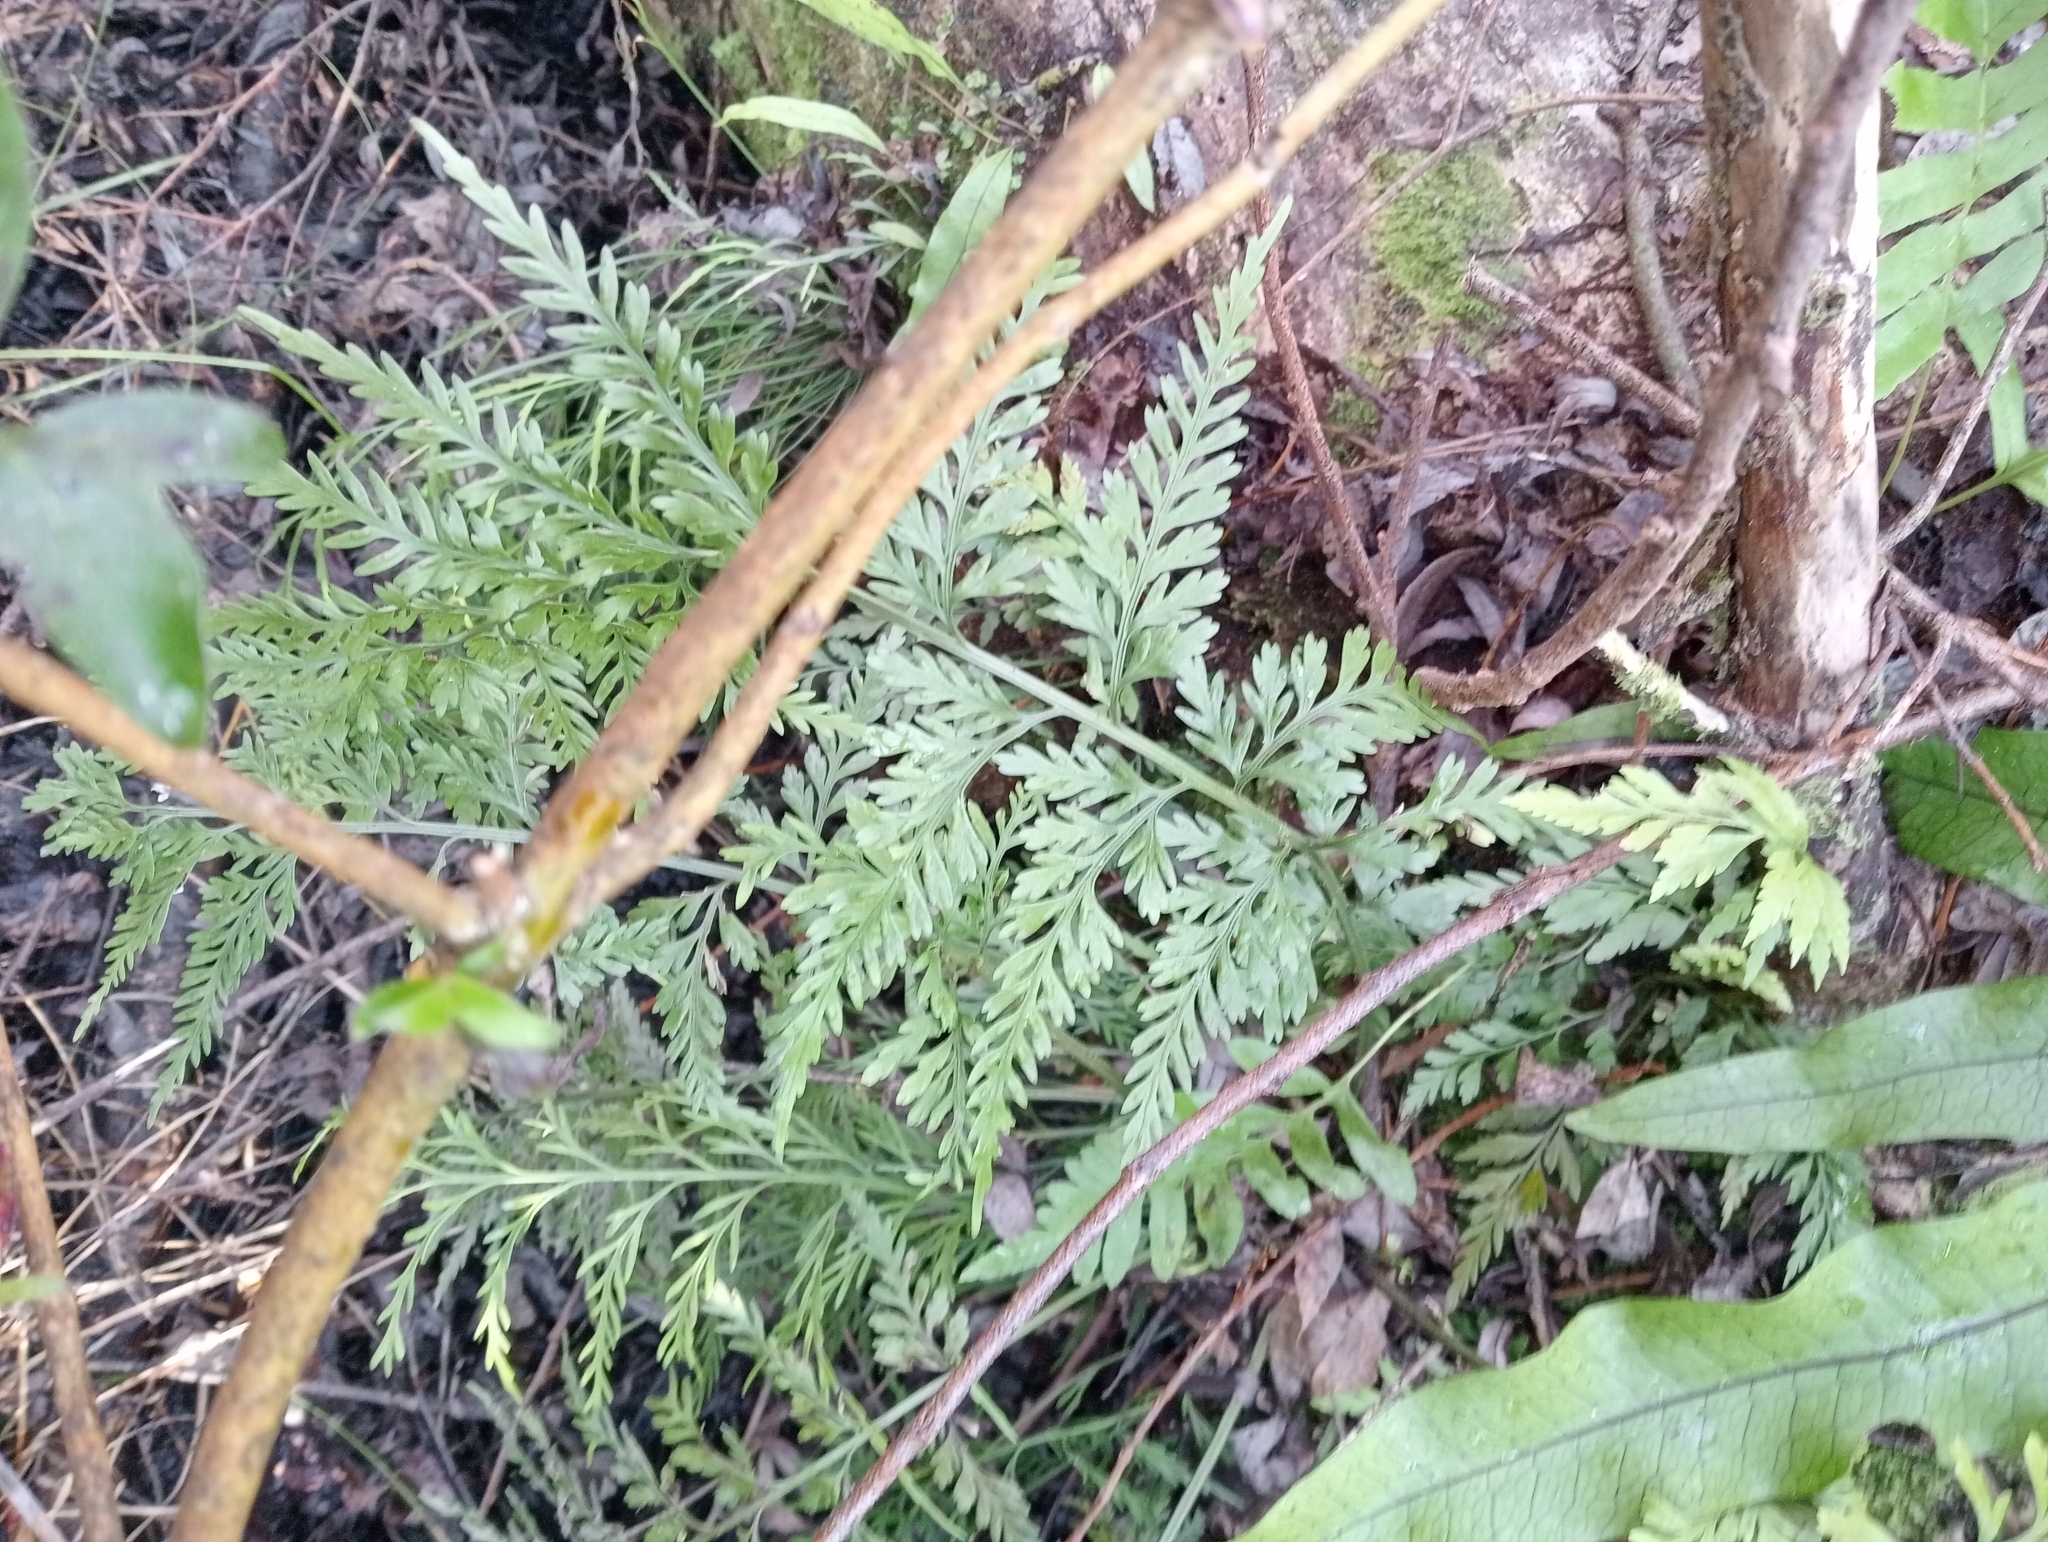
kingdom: Plantae
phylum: Tracheophyta
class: Polypodiopsida
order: Polypodiales
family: Aspleniaceae
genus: Asplenium
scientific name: Asplenium
